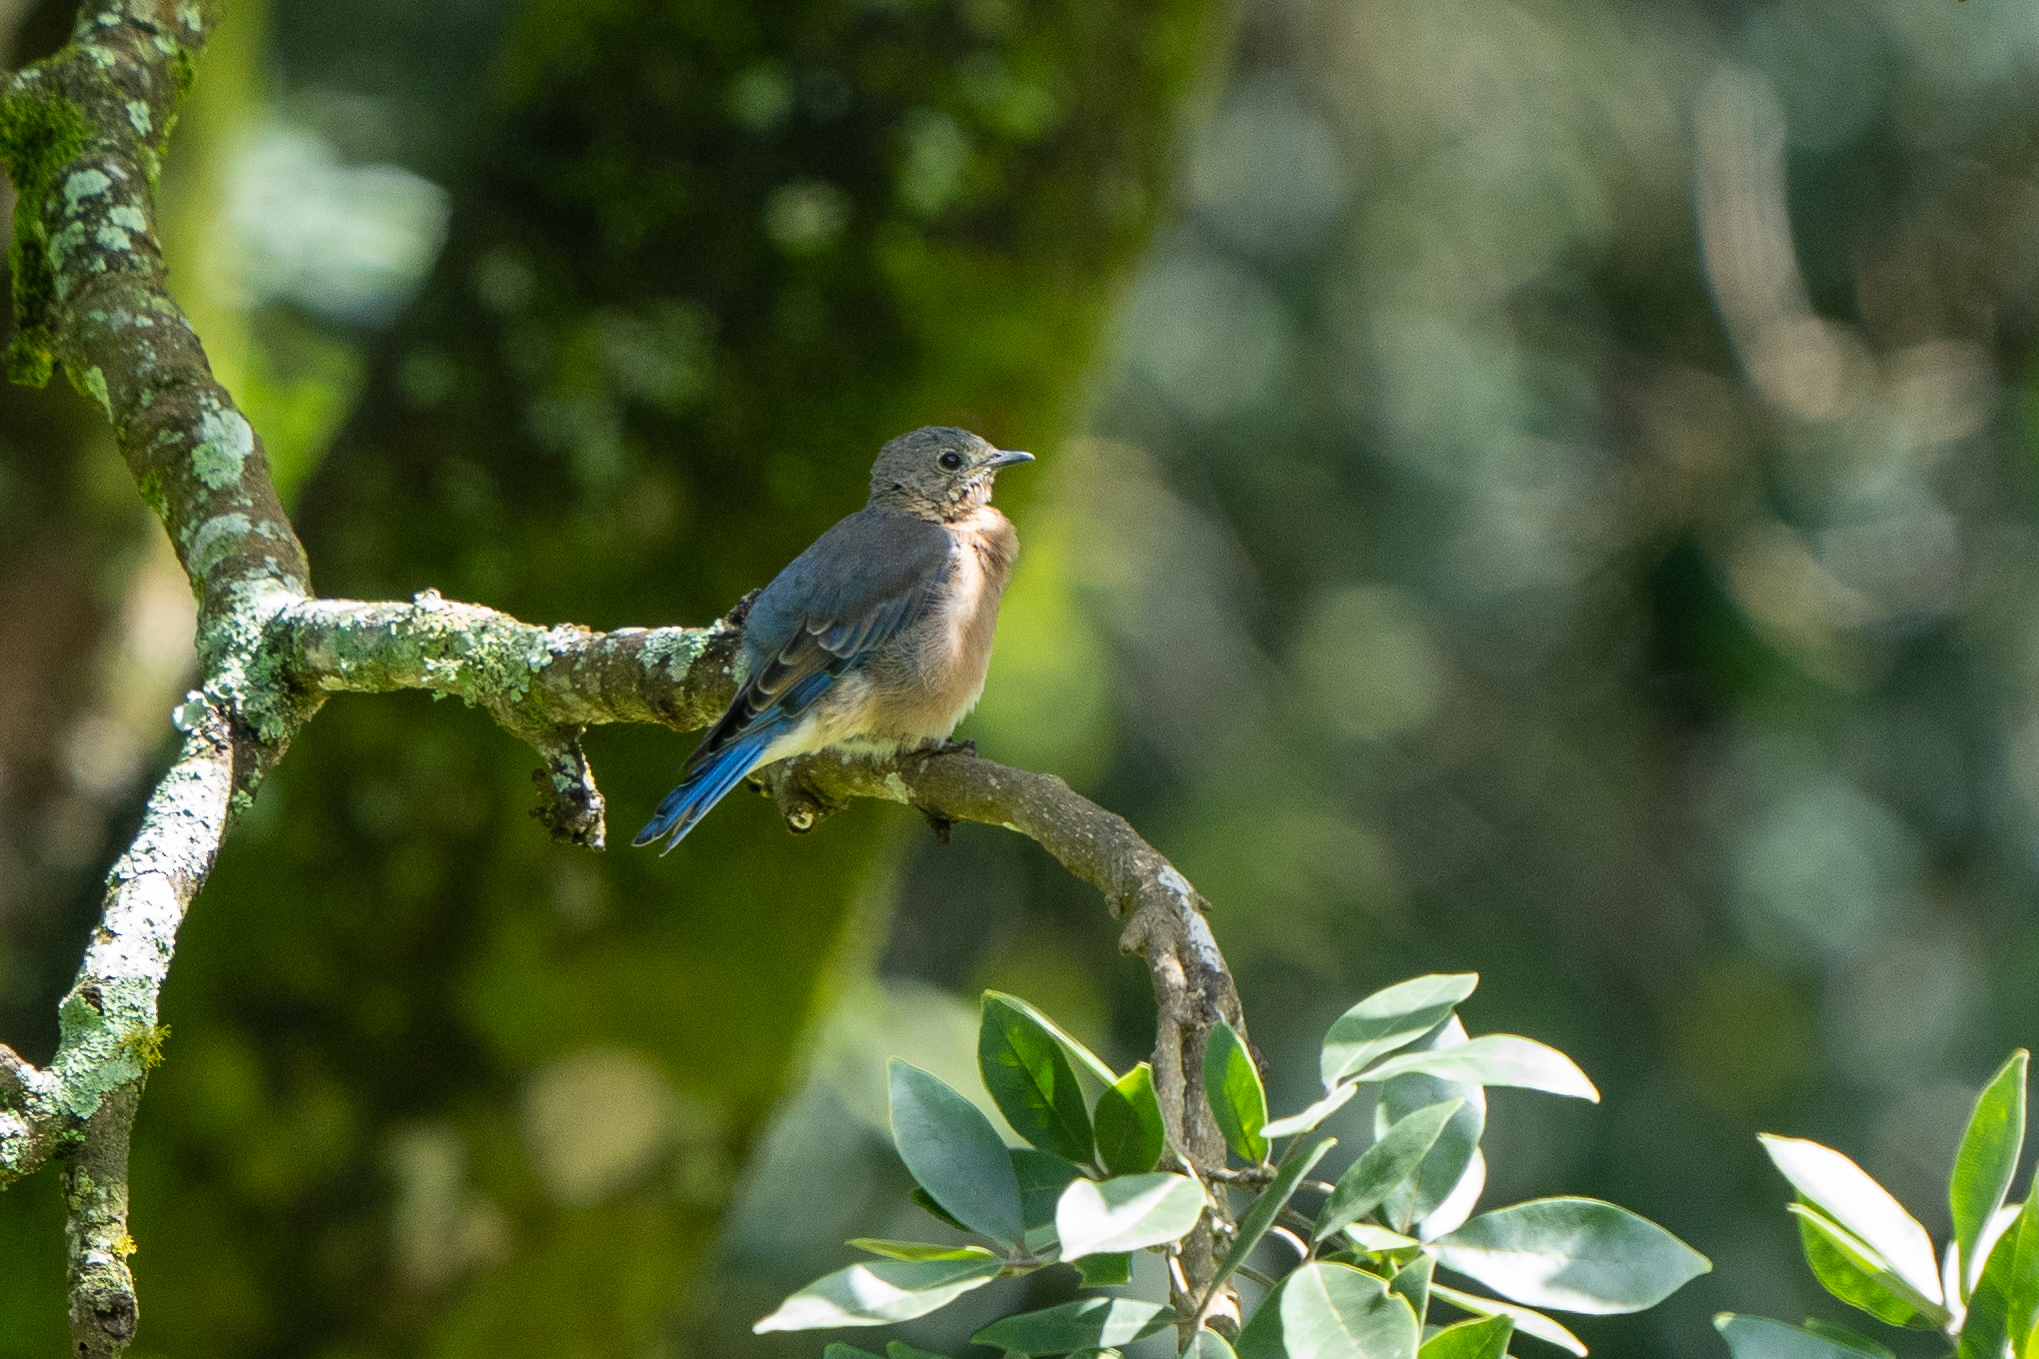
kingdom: Animalia
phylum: Chordata
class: Aves
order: Passeriformes
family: Turdidae
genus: Sialia
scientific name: Sialia sialis
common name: Eastern bluebird
